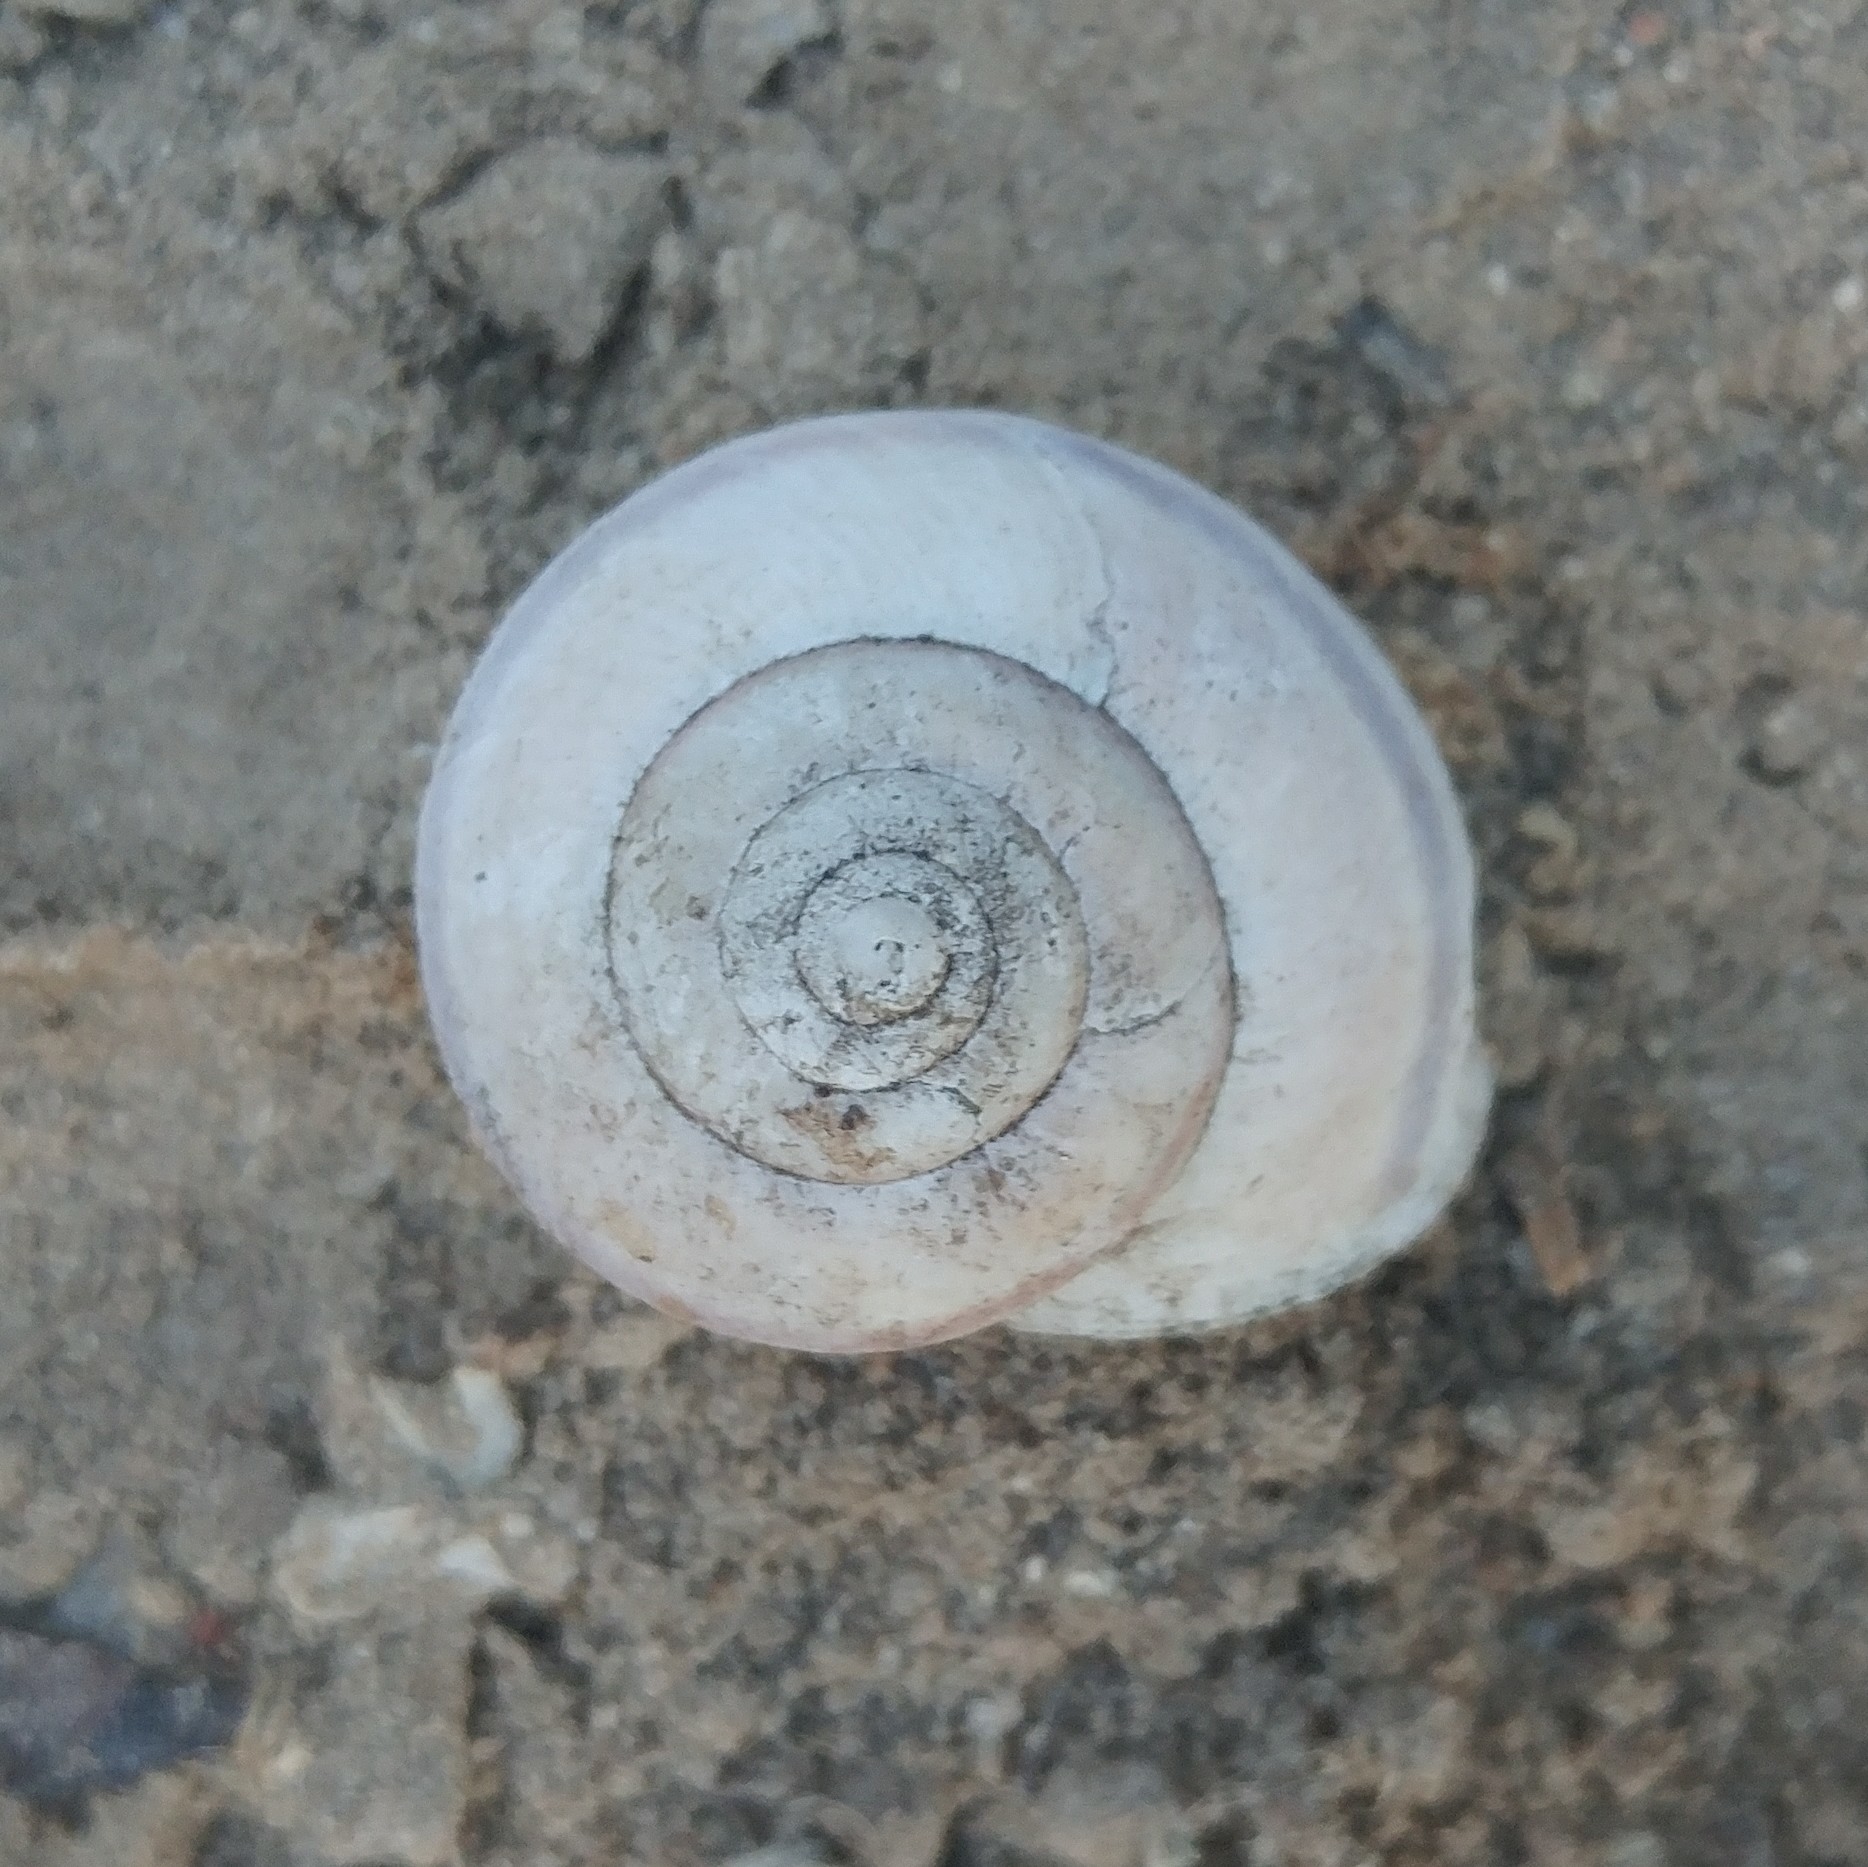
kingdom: Animalia
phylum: Mollusca
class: Gastropoda
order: Stylommatophora
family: Xanthonychidae
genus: Helminthoglypta
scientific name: Helminthoglypta tudiculata
